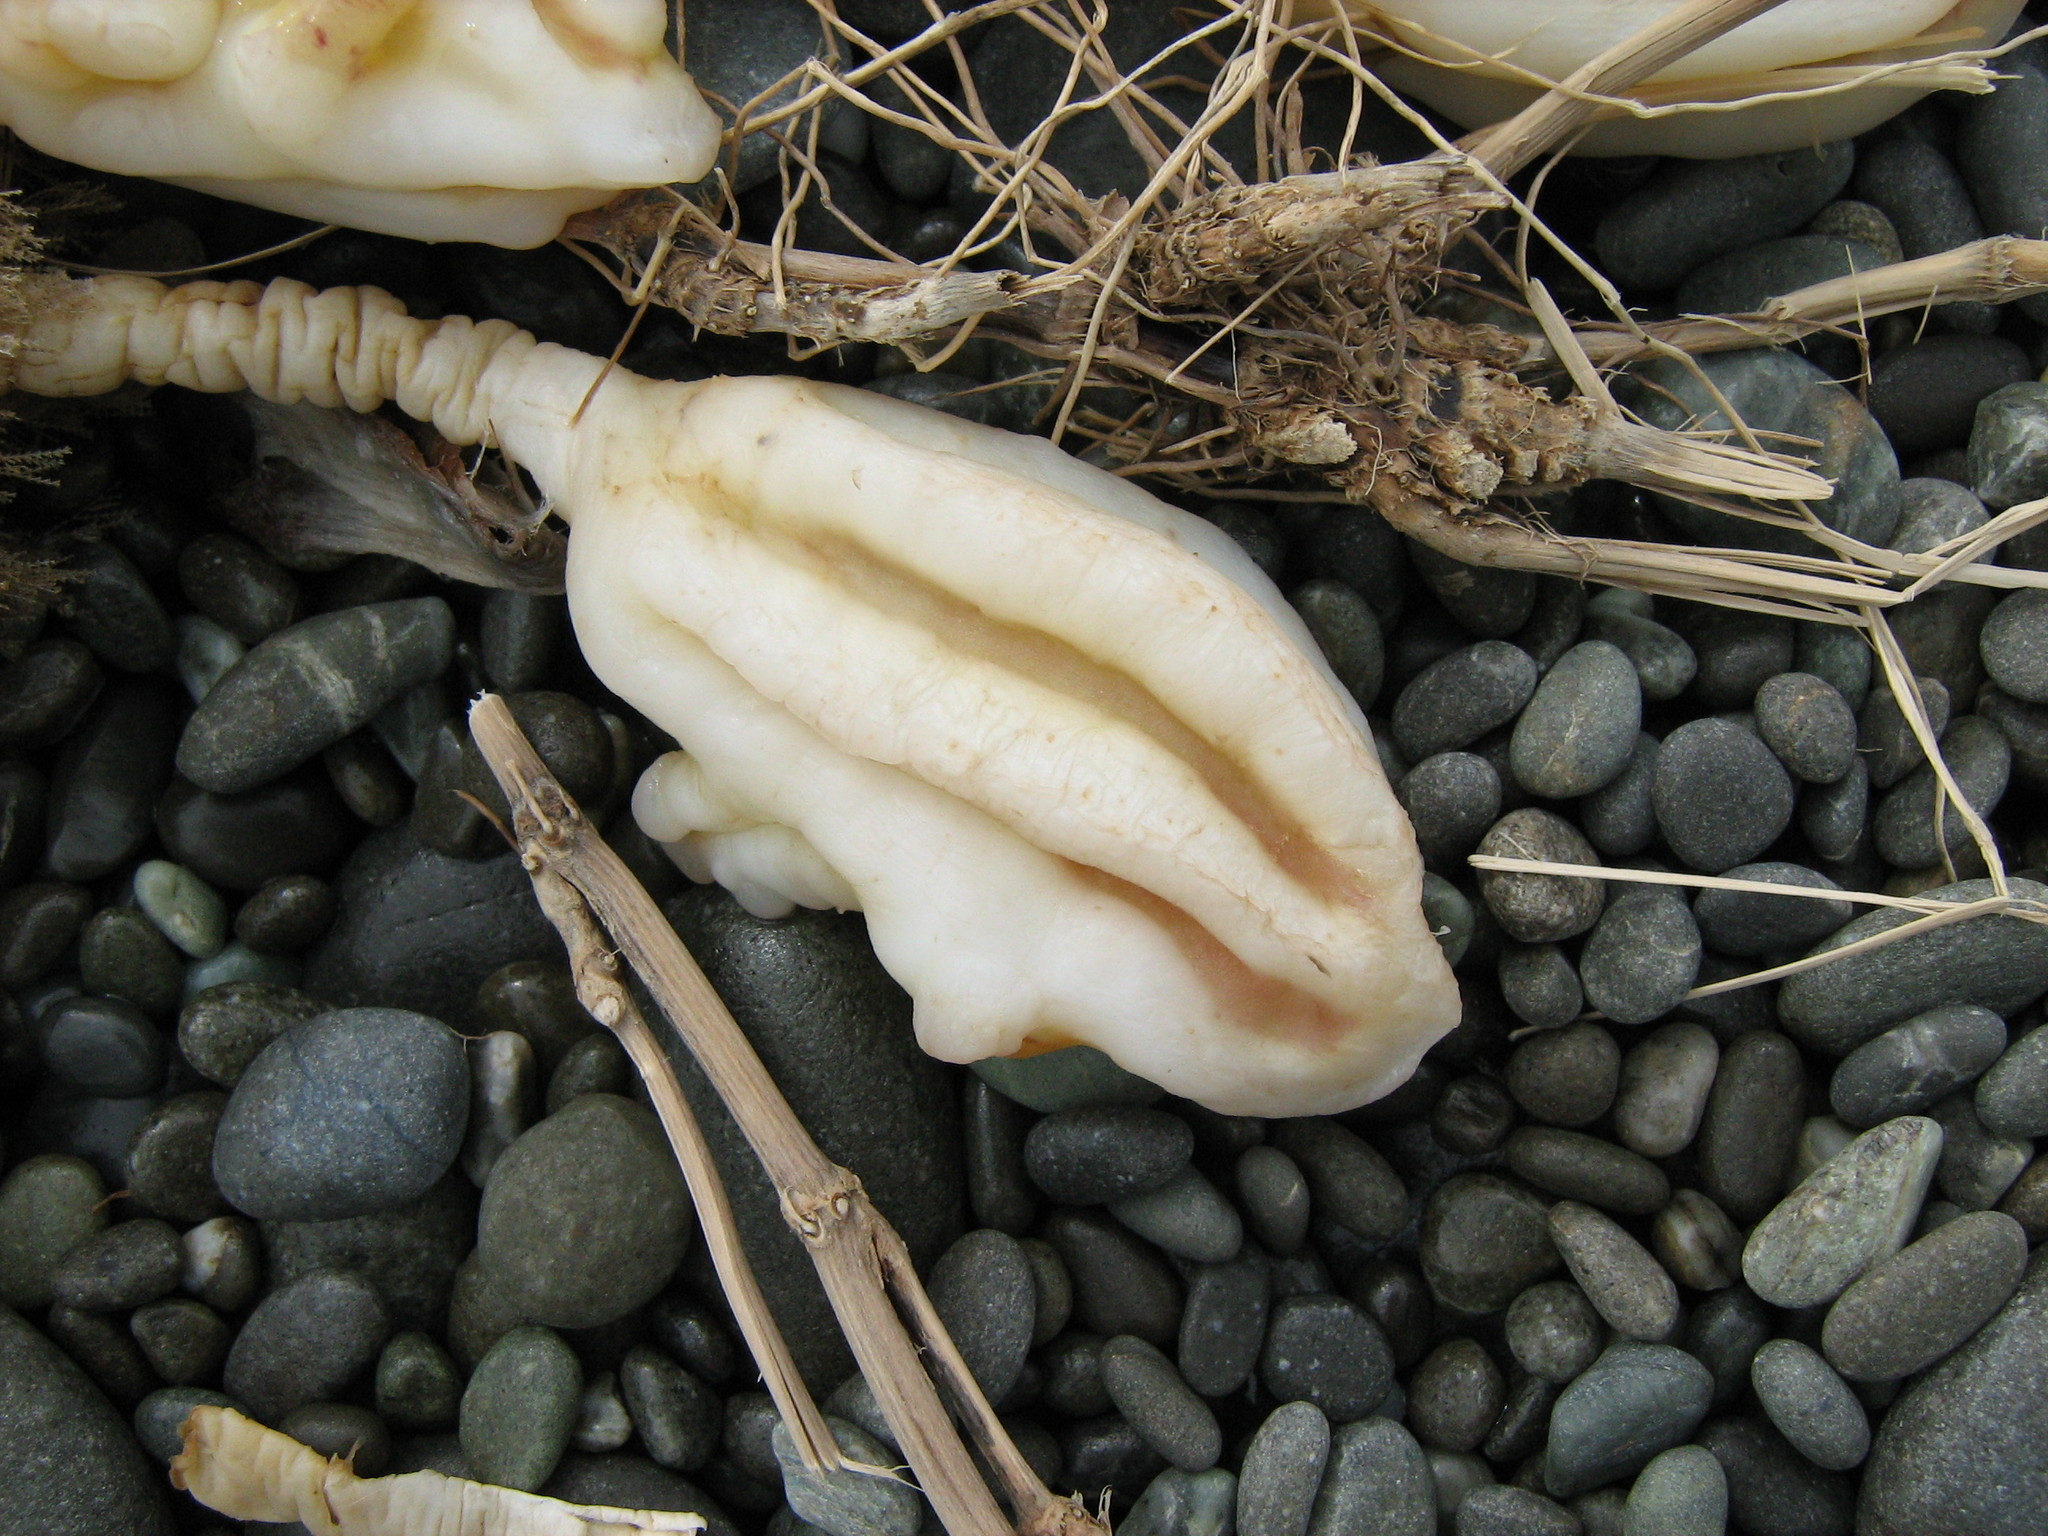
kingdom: Animalia
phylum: Chordata
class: Ascidiacea
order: Stolidobranchia
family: Pyuridae
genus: Pyura
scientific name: Pyura pachydermatina
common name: Sea tulip
